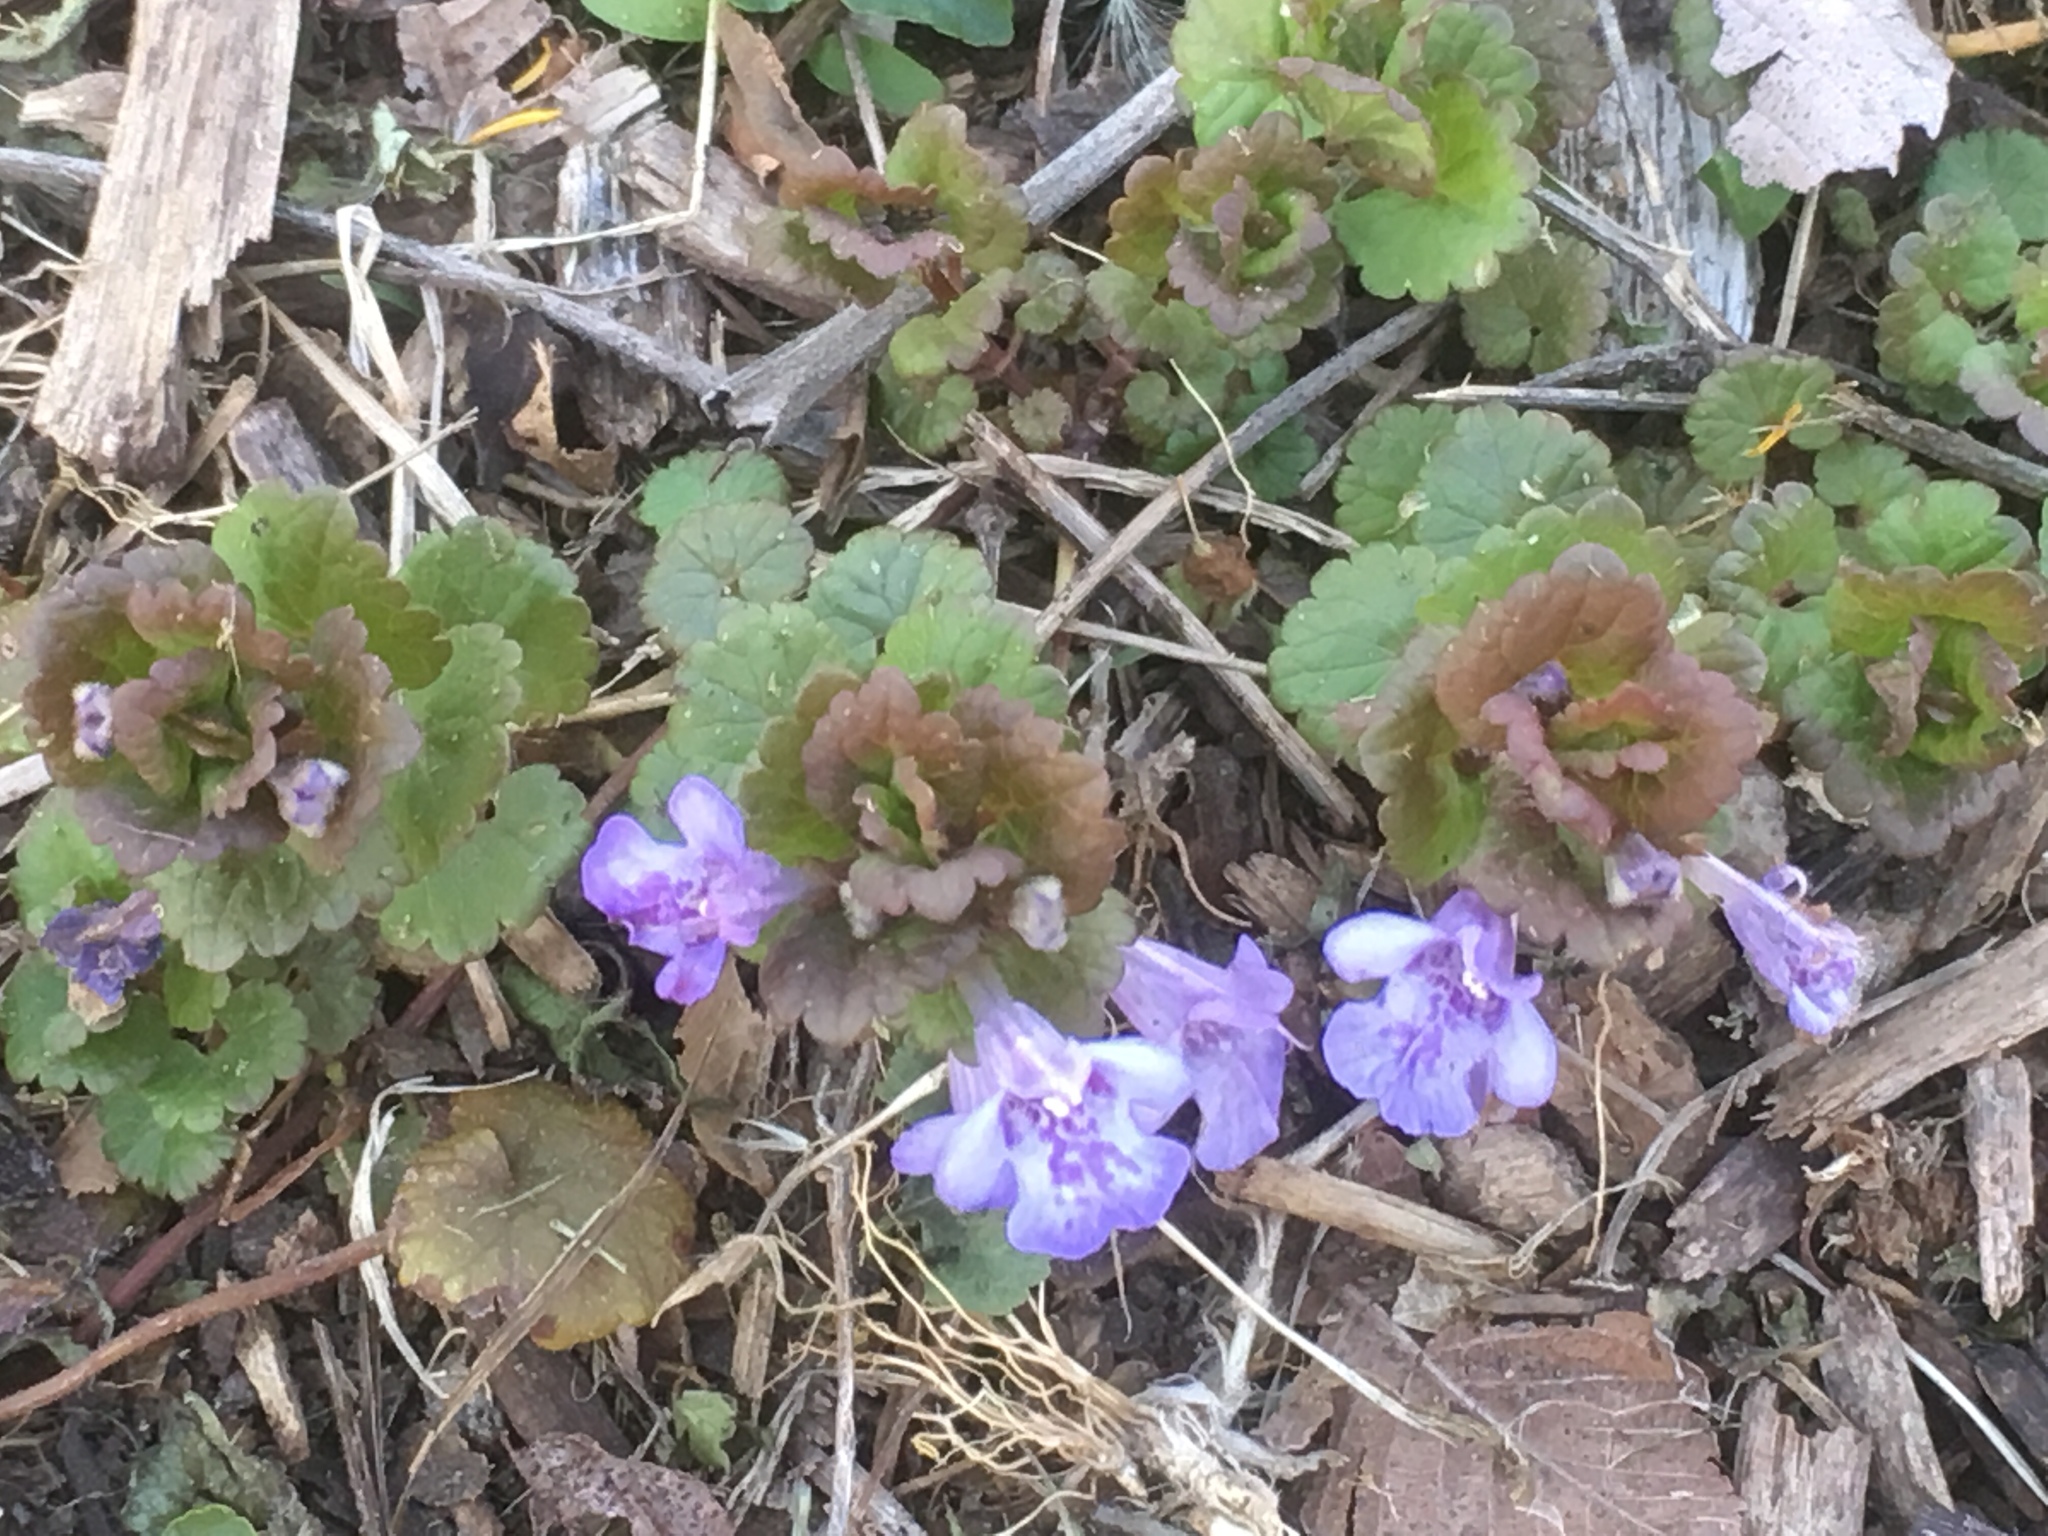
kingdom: Plantae
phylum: Tracheophyta
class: Magnoliopsida
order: Lamiales
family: Lamiaceae
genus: Glechoma
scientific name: Glechoma hederacea
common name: Ground ivy
